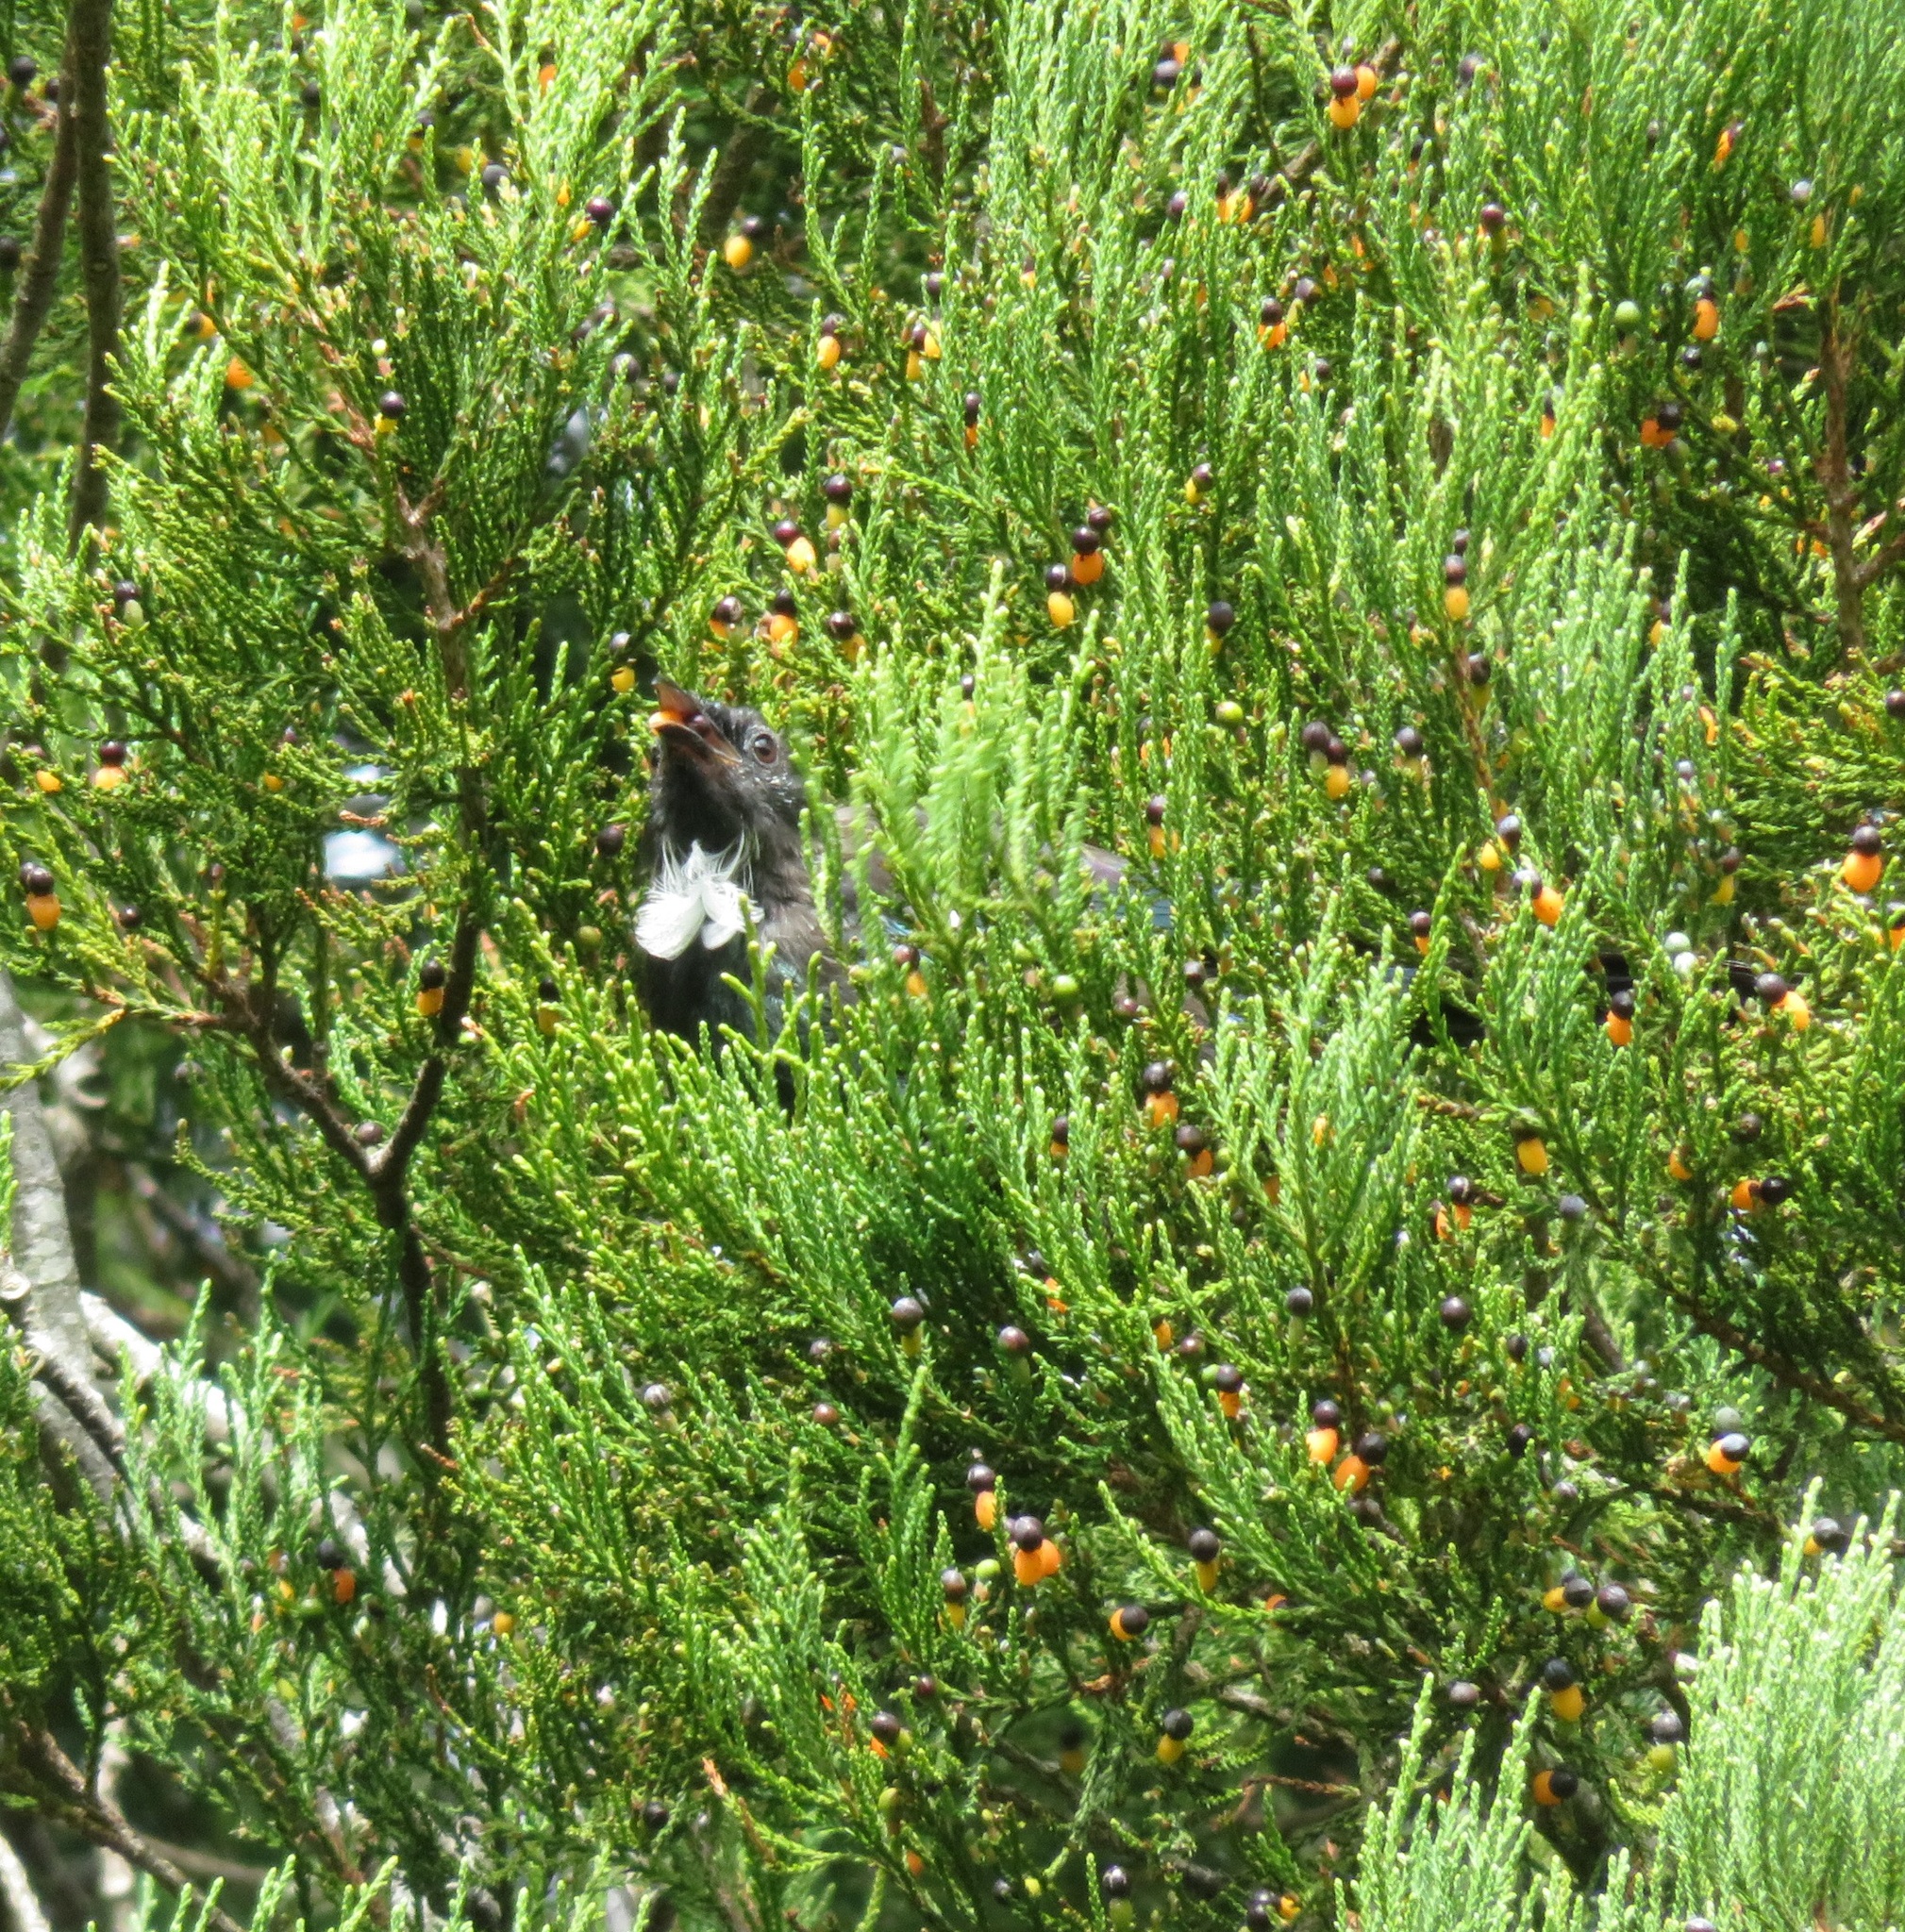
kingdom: Animalia
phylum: Chordata
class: Aves
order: Passeriformes
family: Meliphagidae
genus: Prosthemadera
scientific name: Prosthemadera novaeseelandiae
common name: Tui
